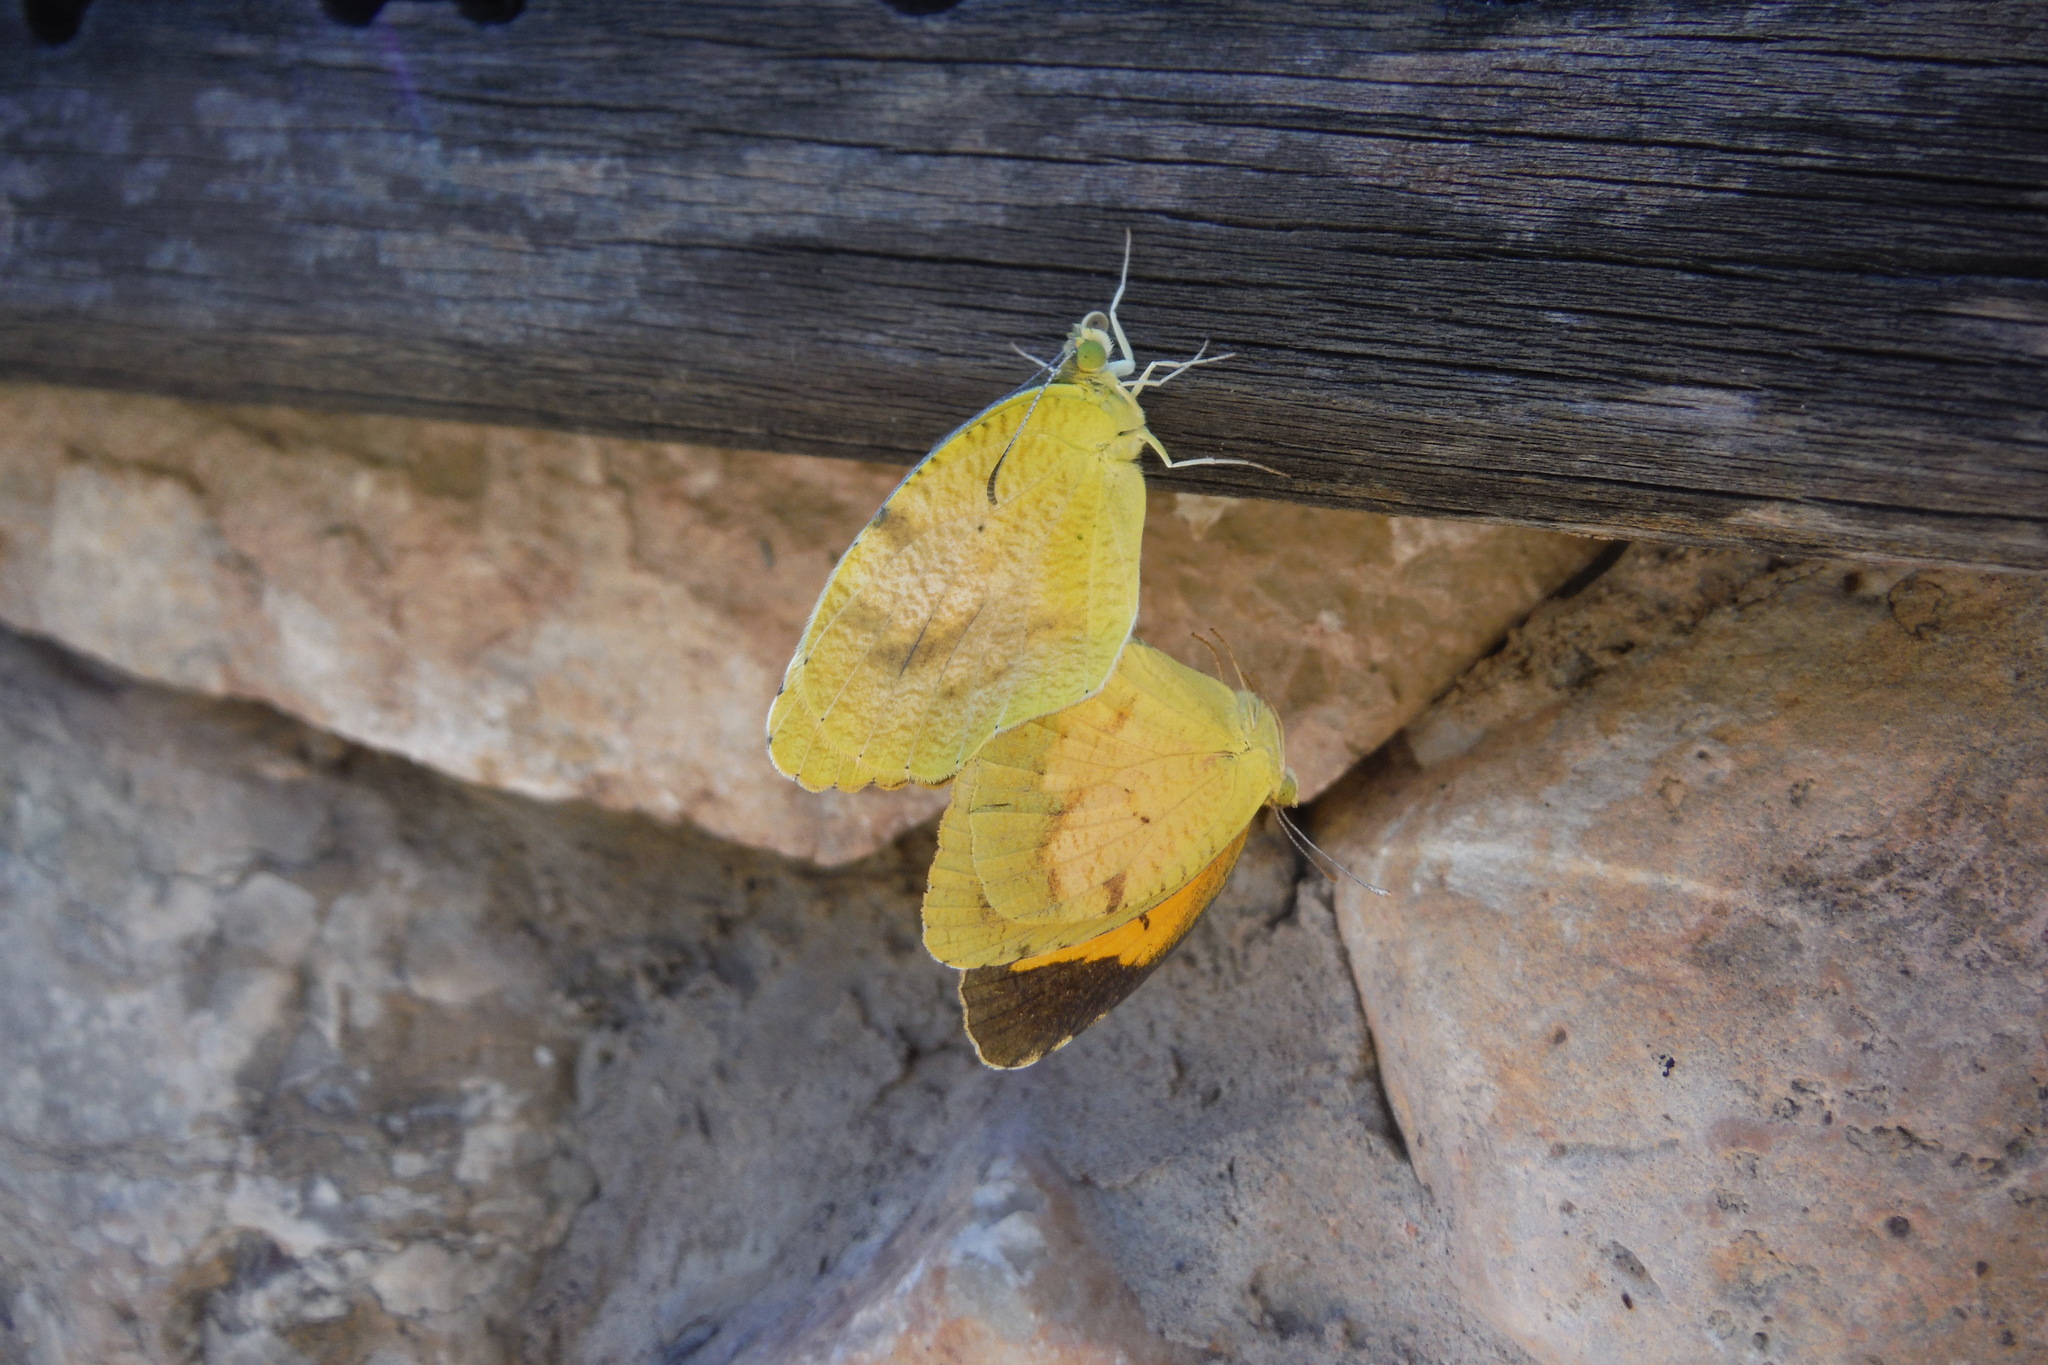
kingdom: Animalia
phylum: Arthropoda
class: Insecta
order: Lepidoptera
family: Pieridae
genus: Abaeis
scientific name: Abaeis nicippe
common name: Sleepy orange
